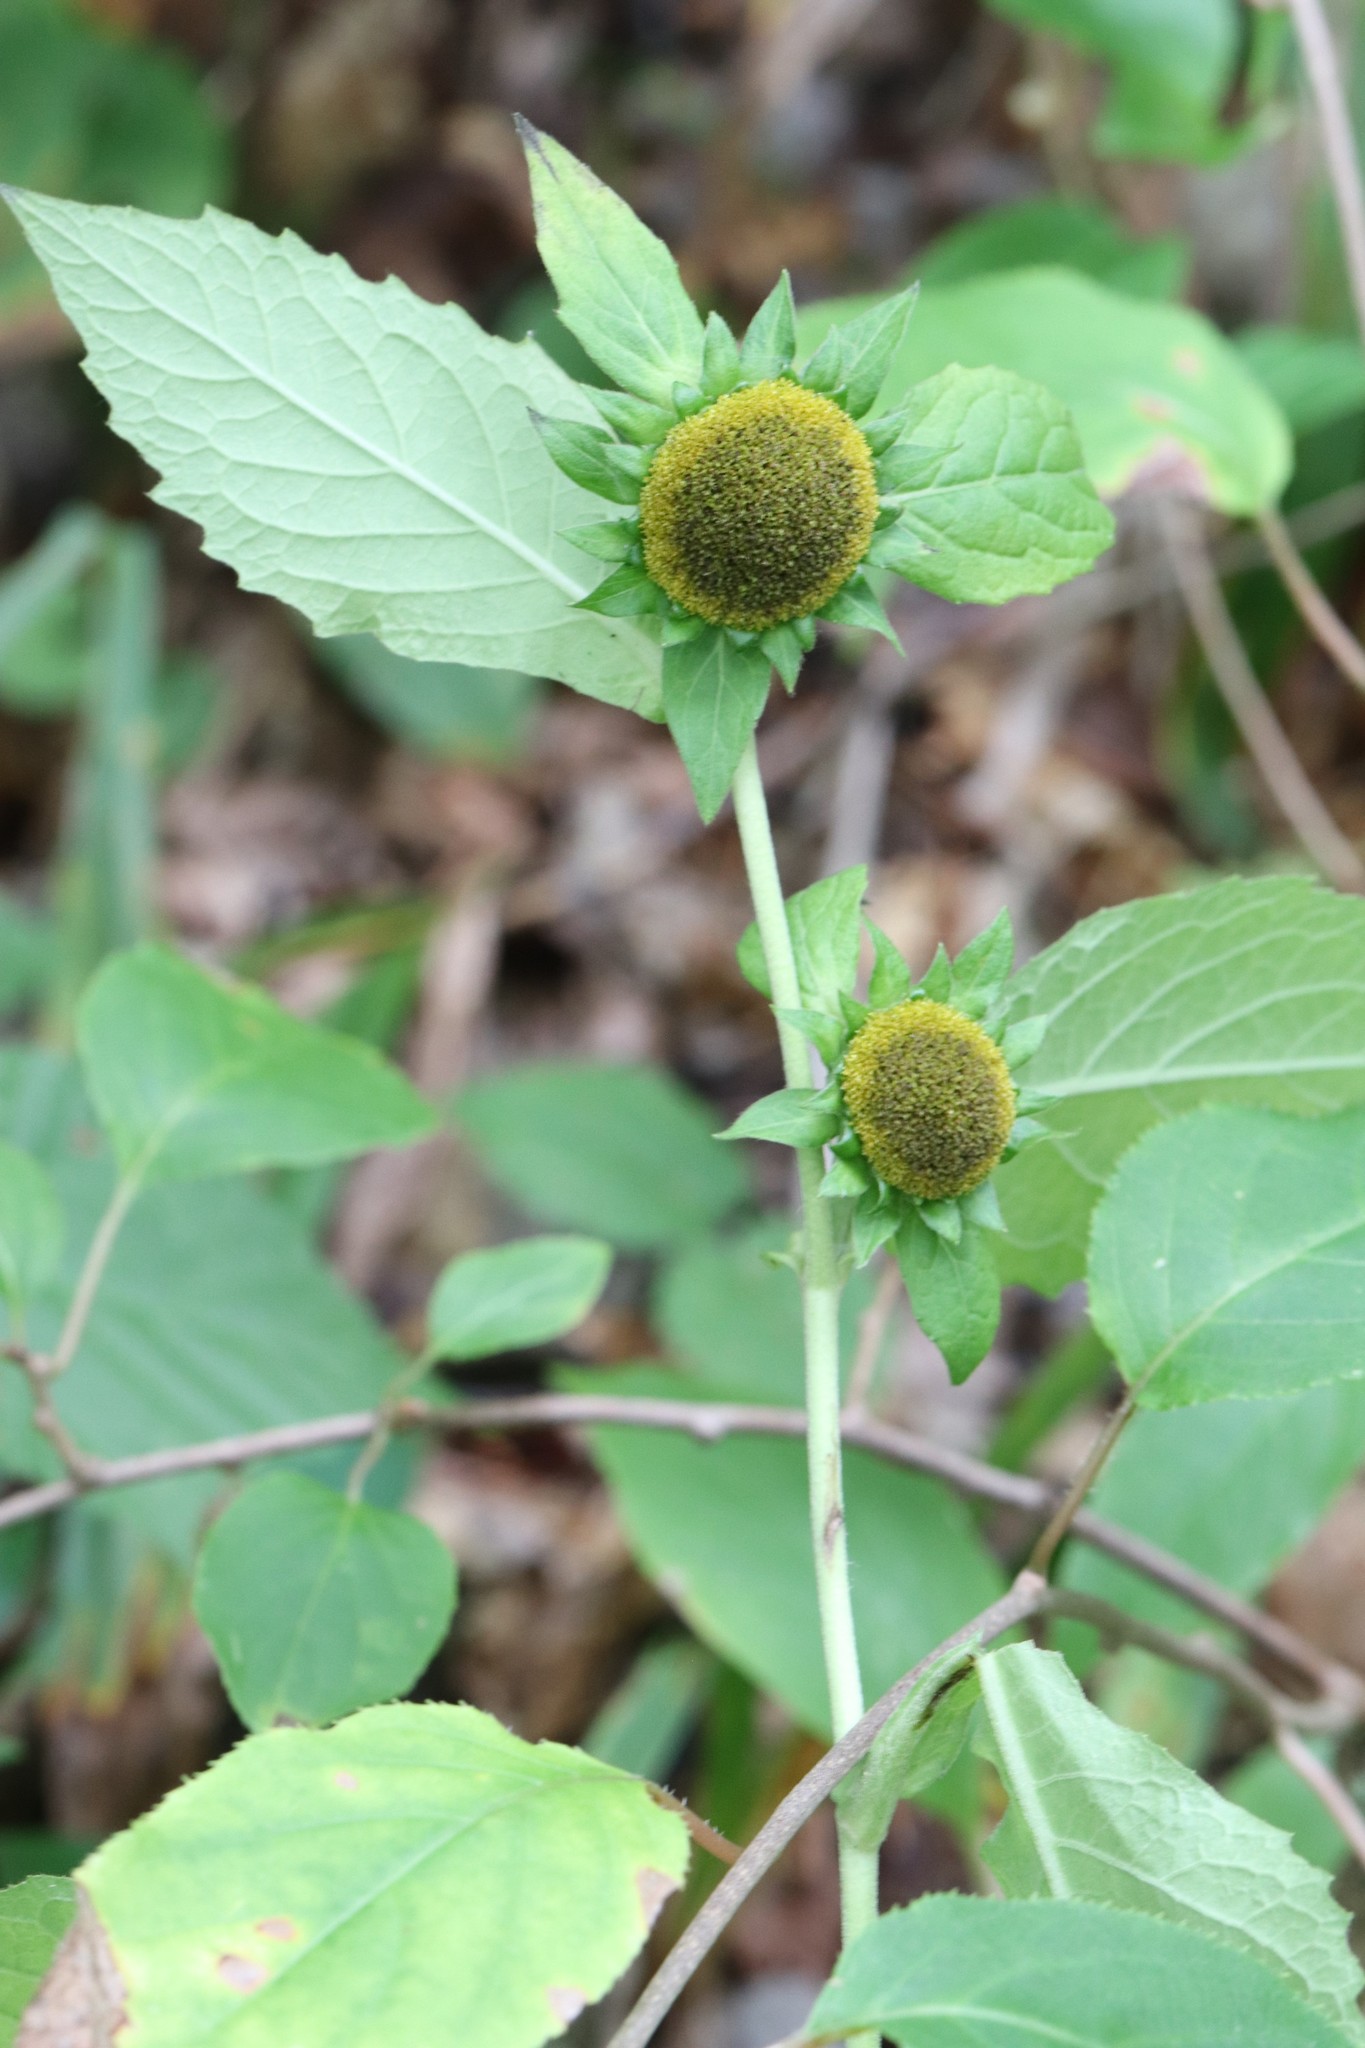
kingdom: Plantae
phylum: Tracheophyta
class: Magnoliopsida
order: Asterales
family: Asteraceae
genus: Carpesium
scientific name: Carpesium macrocephalum
